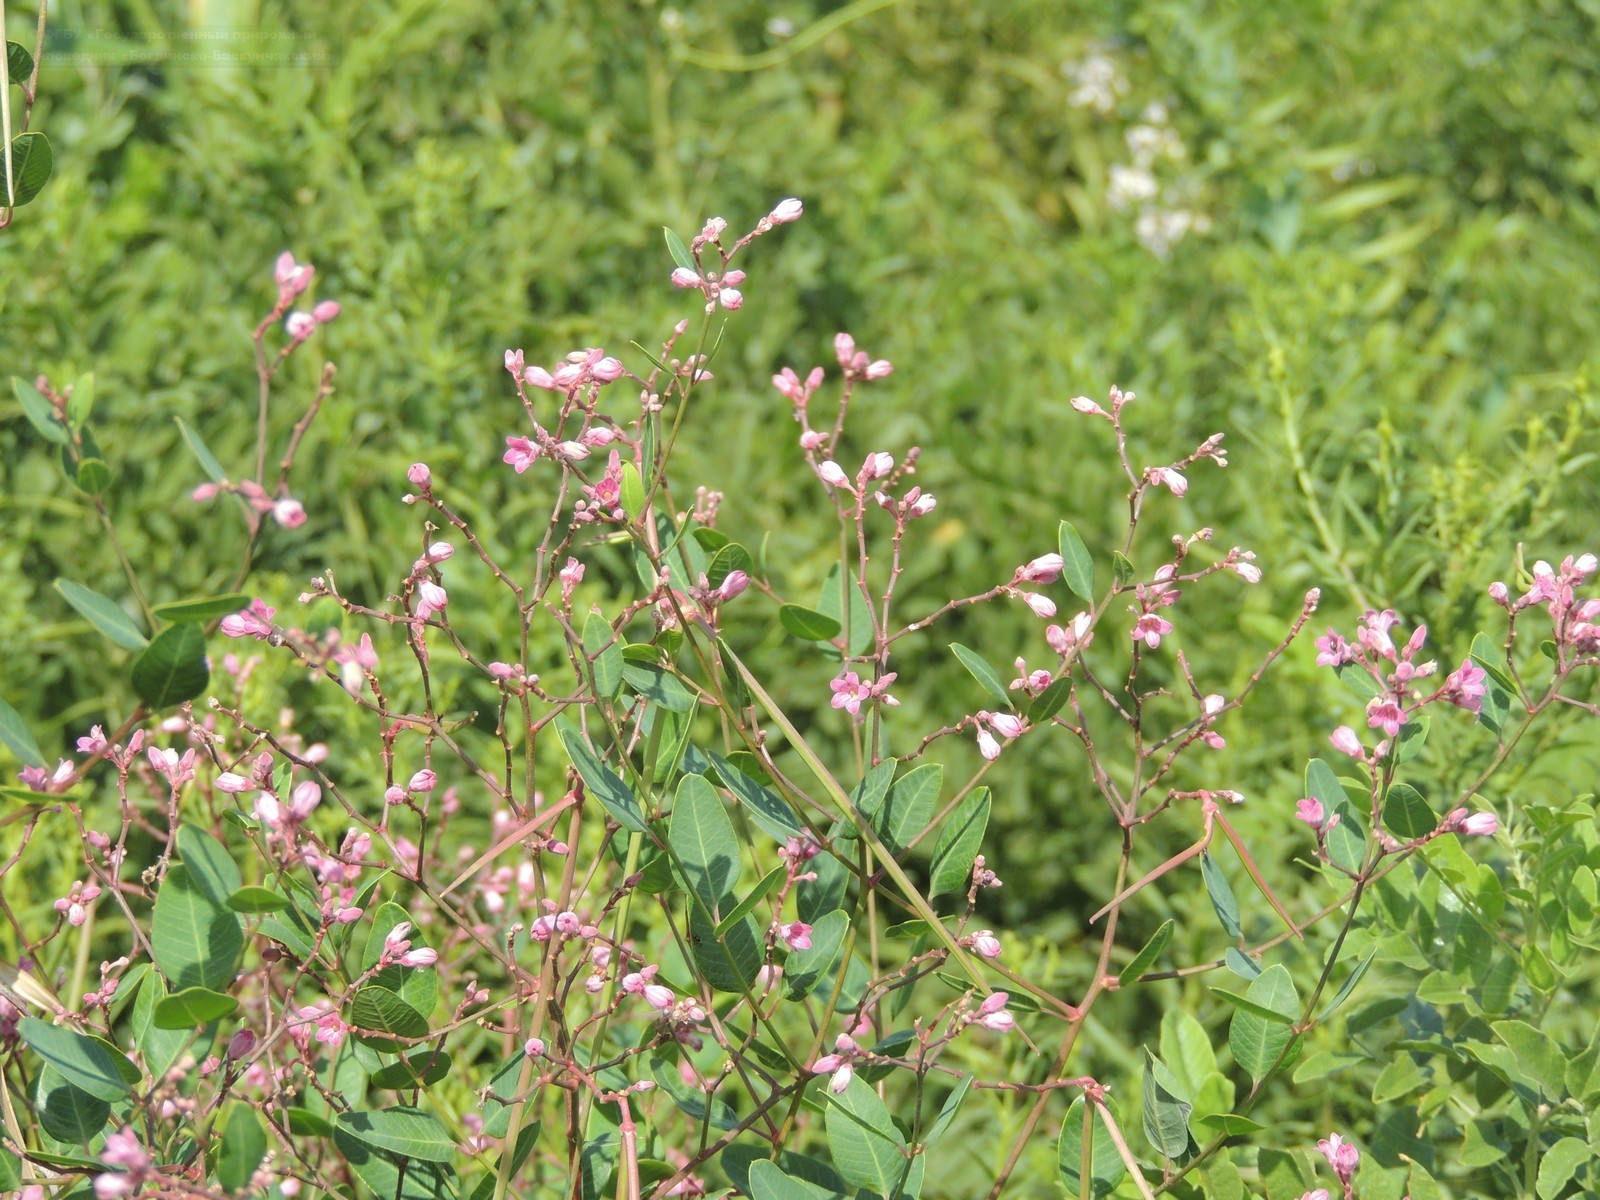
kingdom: Plantae
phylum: Tracheophyta
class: Magnoliopsida
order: Gentianales
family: Apocynaceae
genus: Poacynum
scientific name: Poacynum venetum
